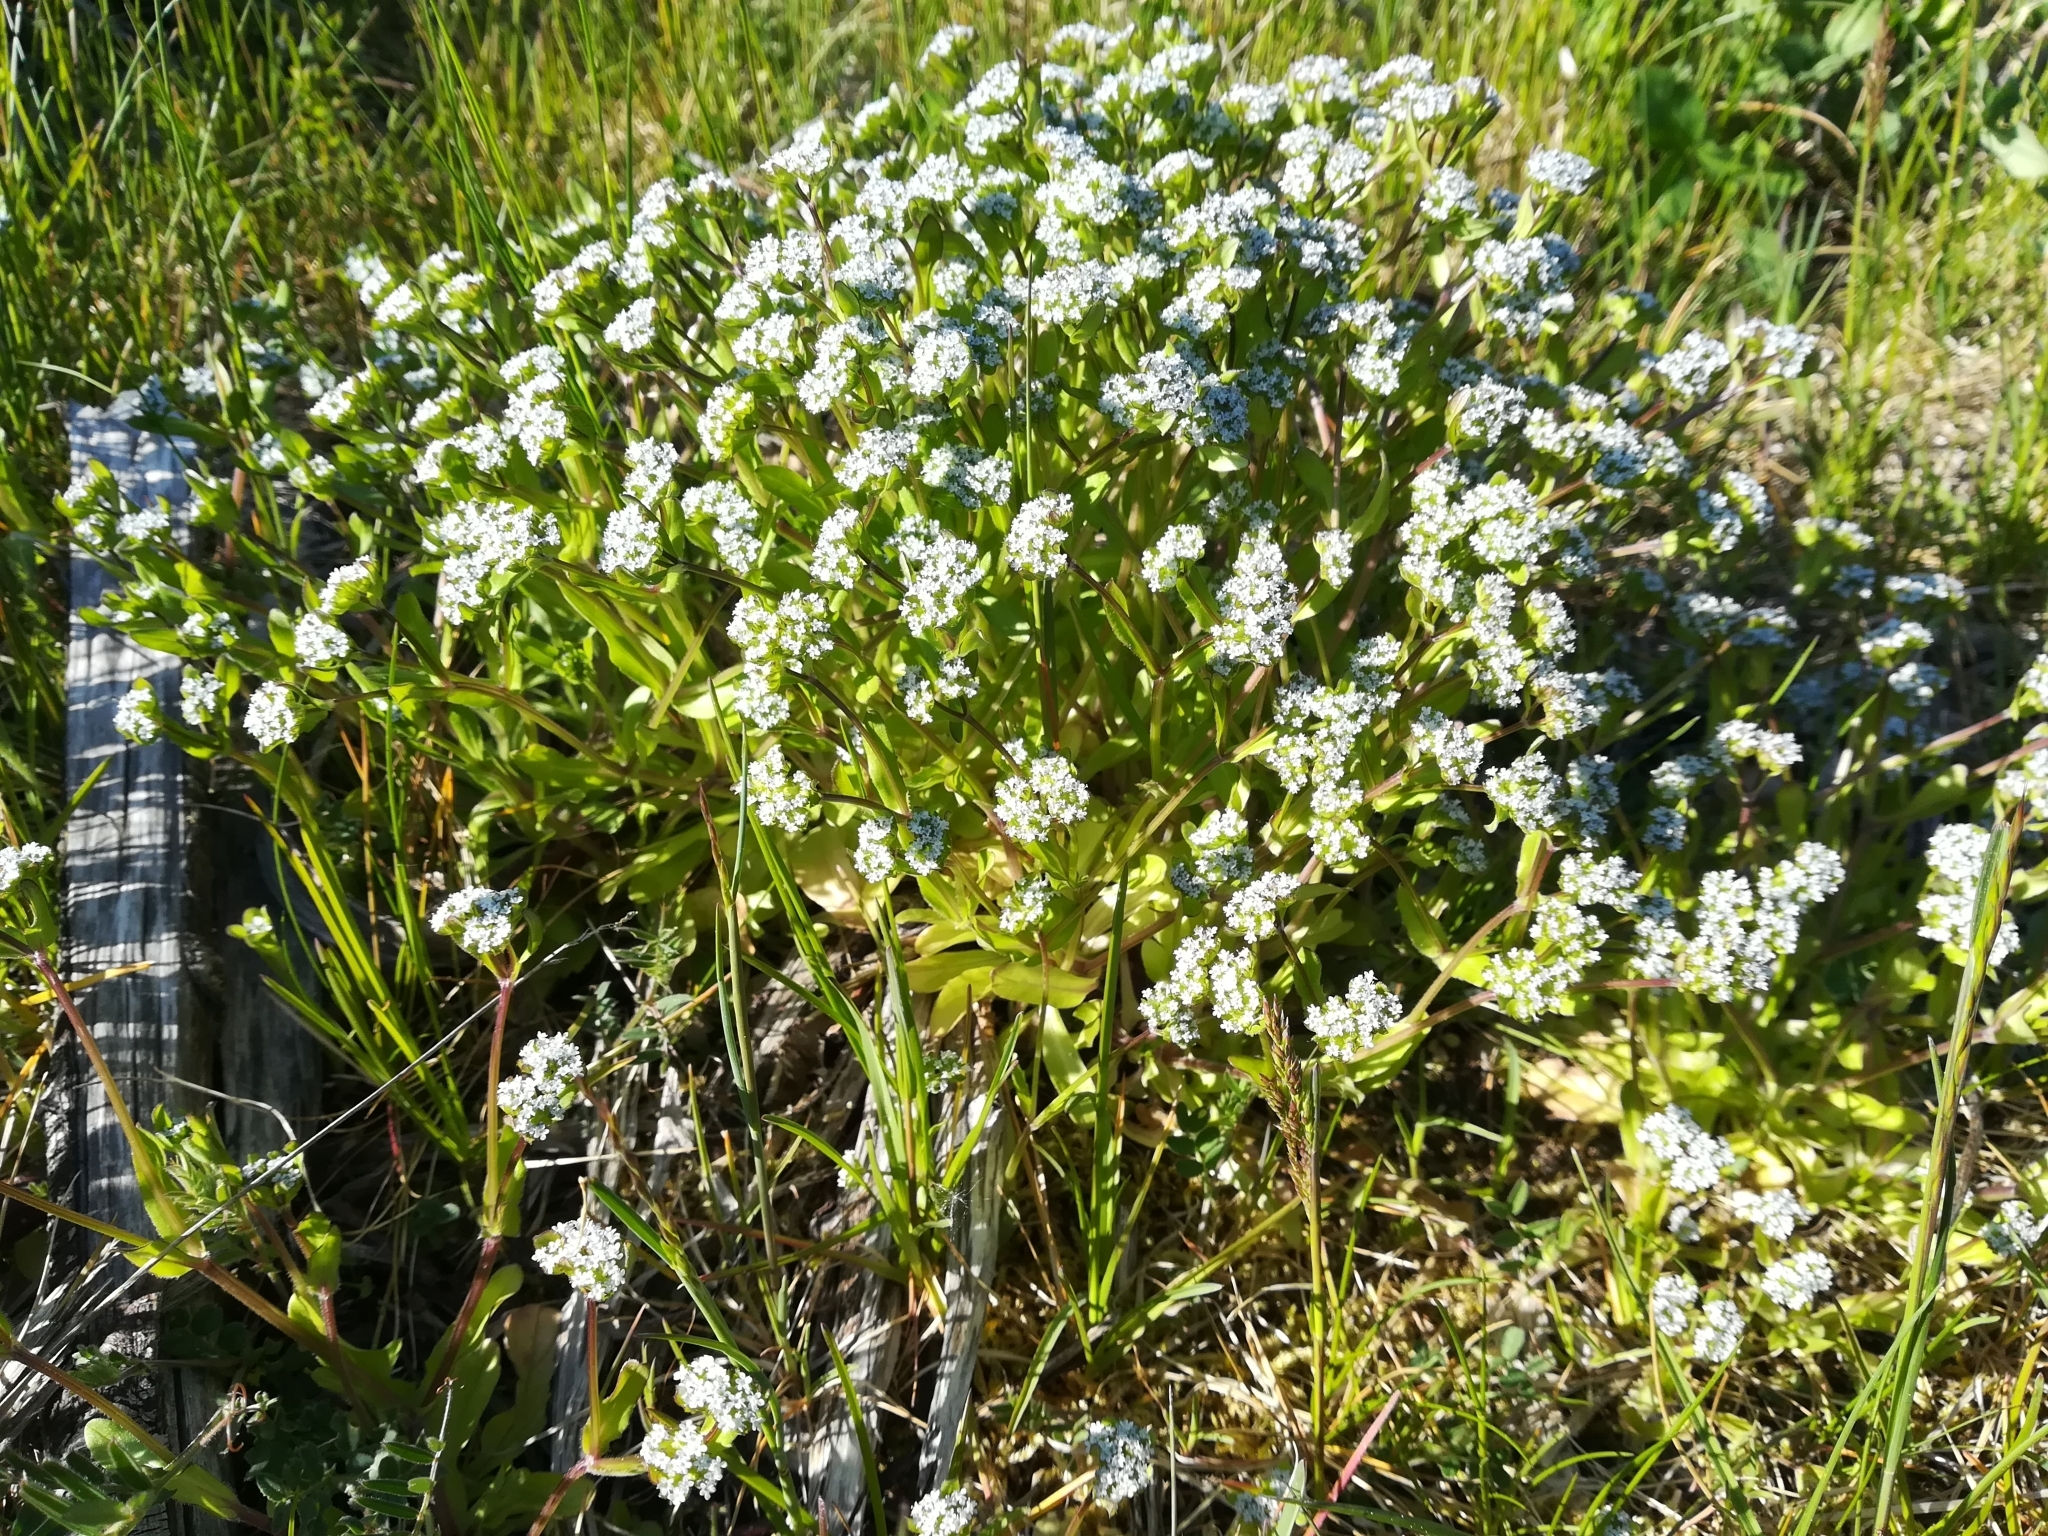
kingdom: Plantae
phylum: Tracheophyta
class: Magnoliopsida
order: Dipsacales
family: Caprifoliaceae
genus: Valerianella
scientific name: Valerianella locusta
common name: Common cornsalad
